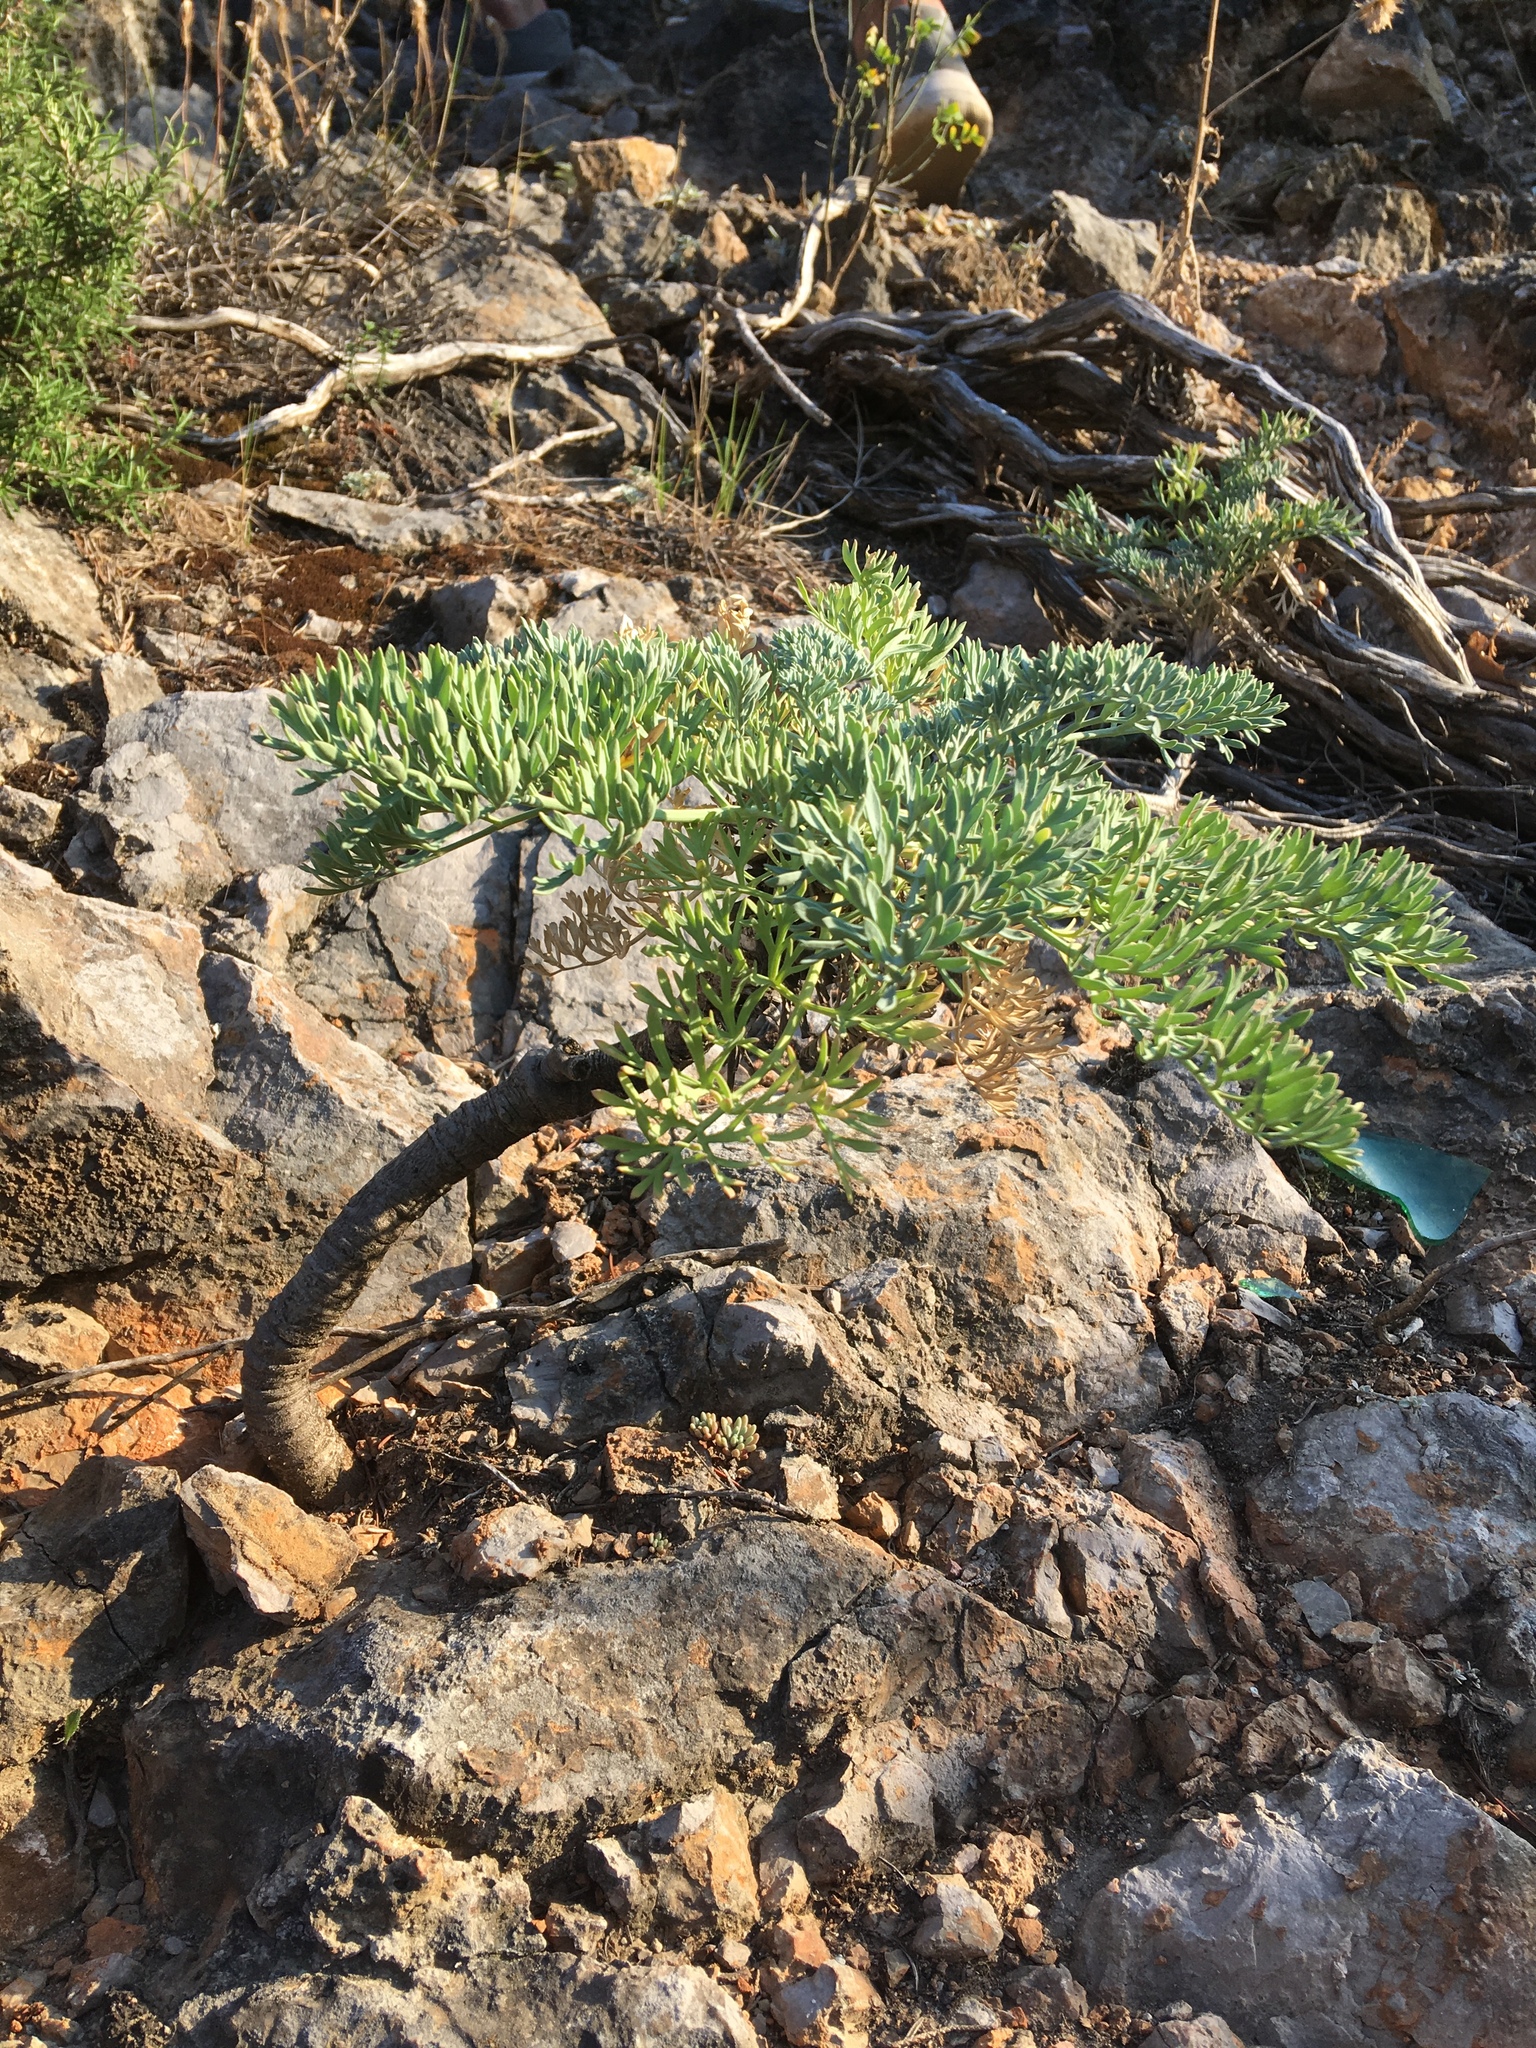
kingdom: Plantae
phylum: Tracheophyta
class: Magnoliopsida
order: Apiales
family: Apiaceae
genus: Seseli
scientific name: Seseli gummiferum
